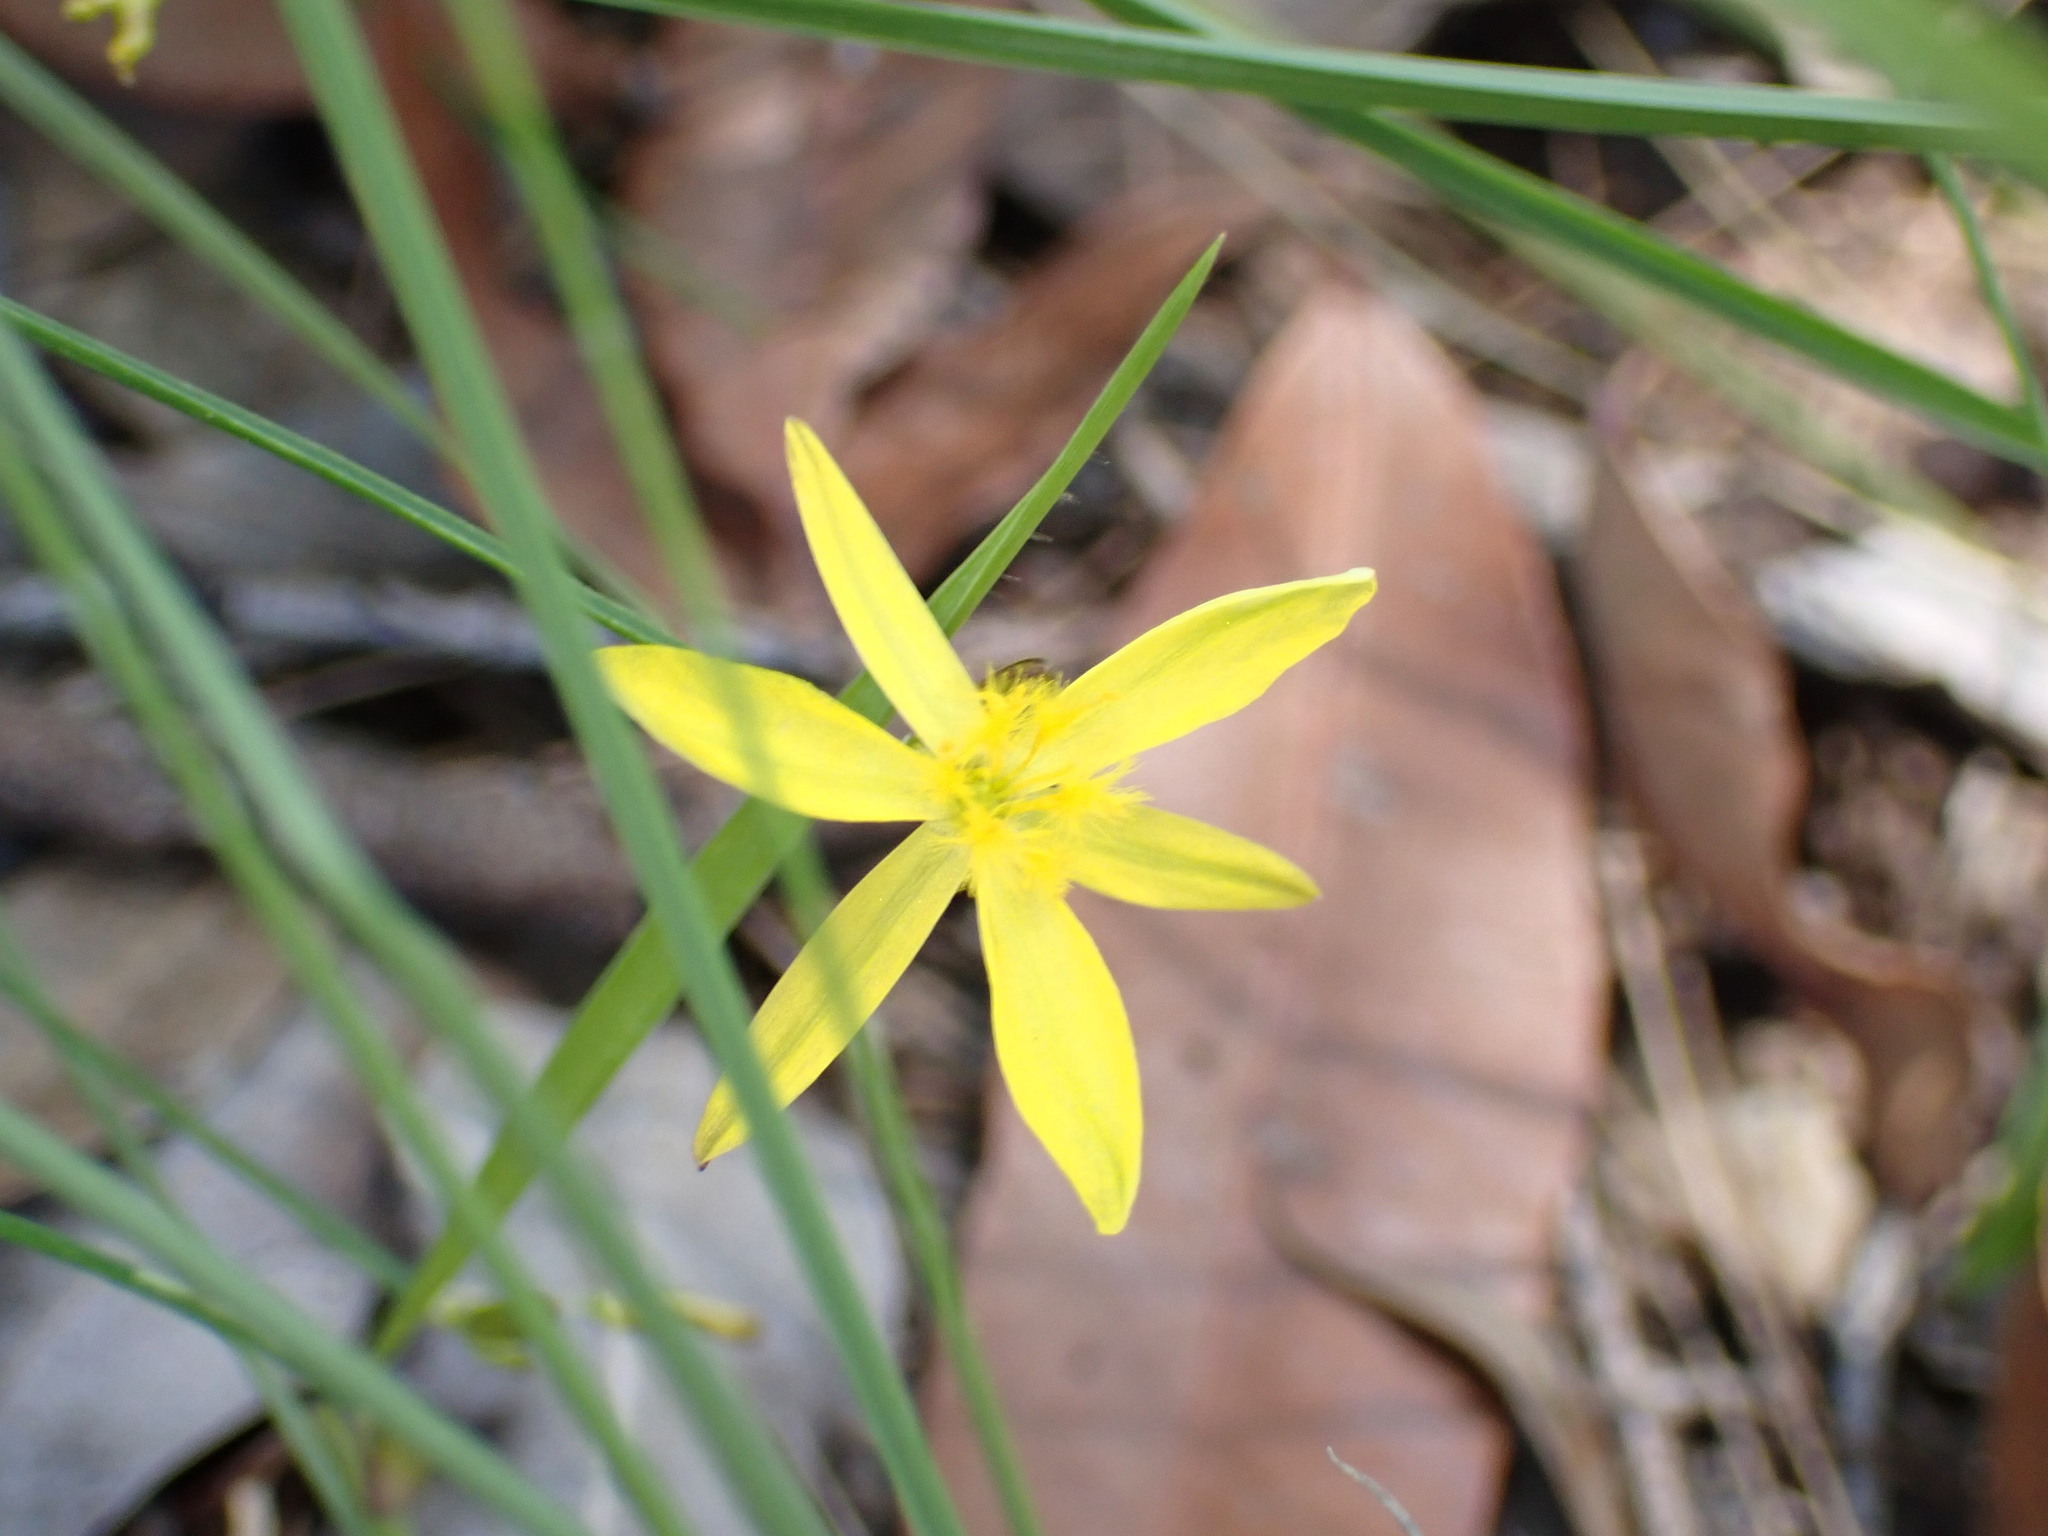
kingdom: Plantae
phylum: Tracheophyta
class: Liliopsida
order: Asparagales
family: Asphodelaceae
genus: Tricoryne
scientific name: Tricoryne elatior
